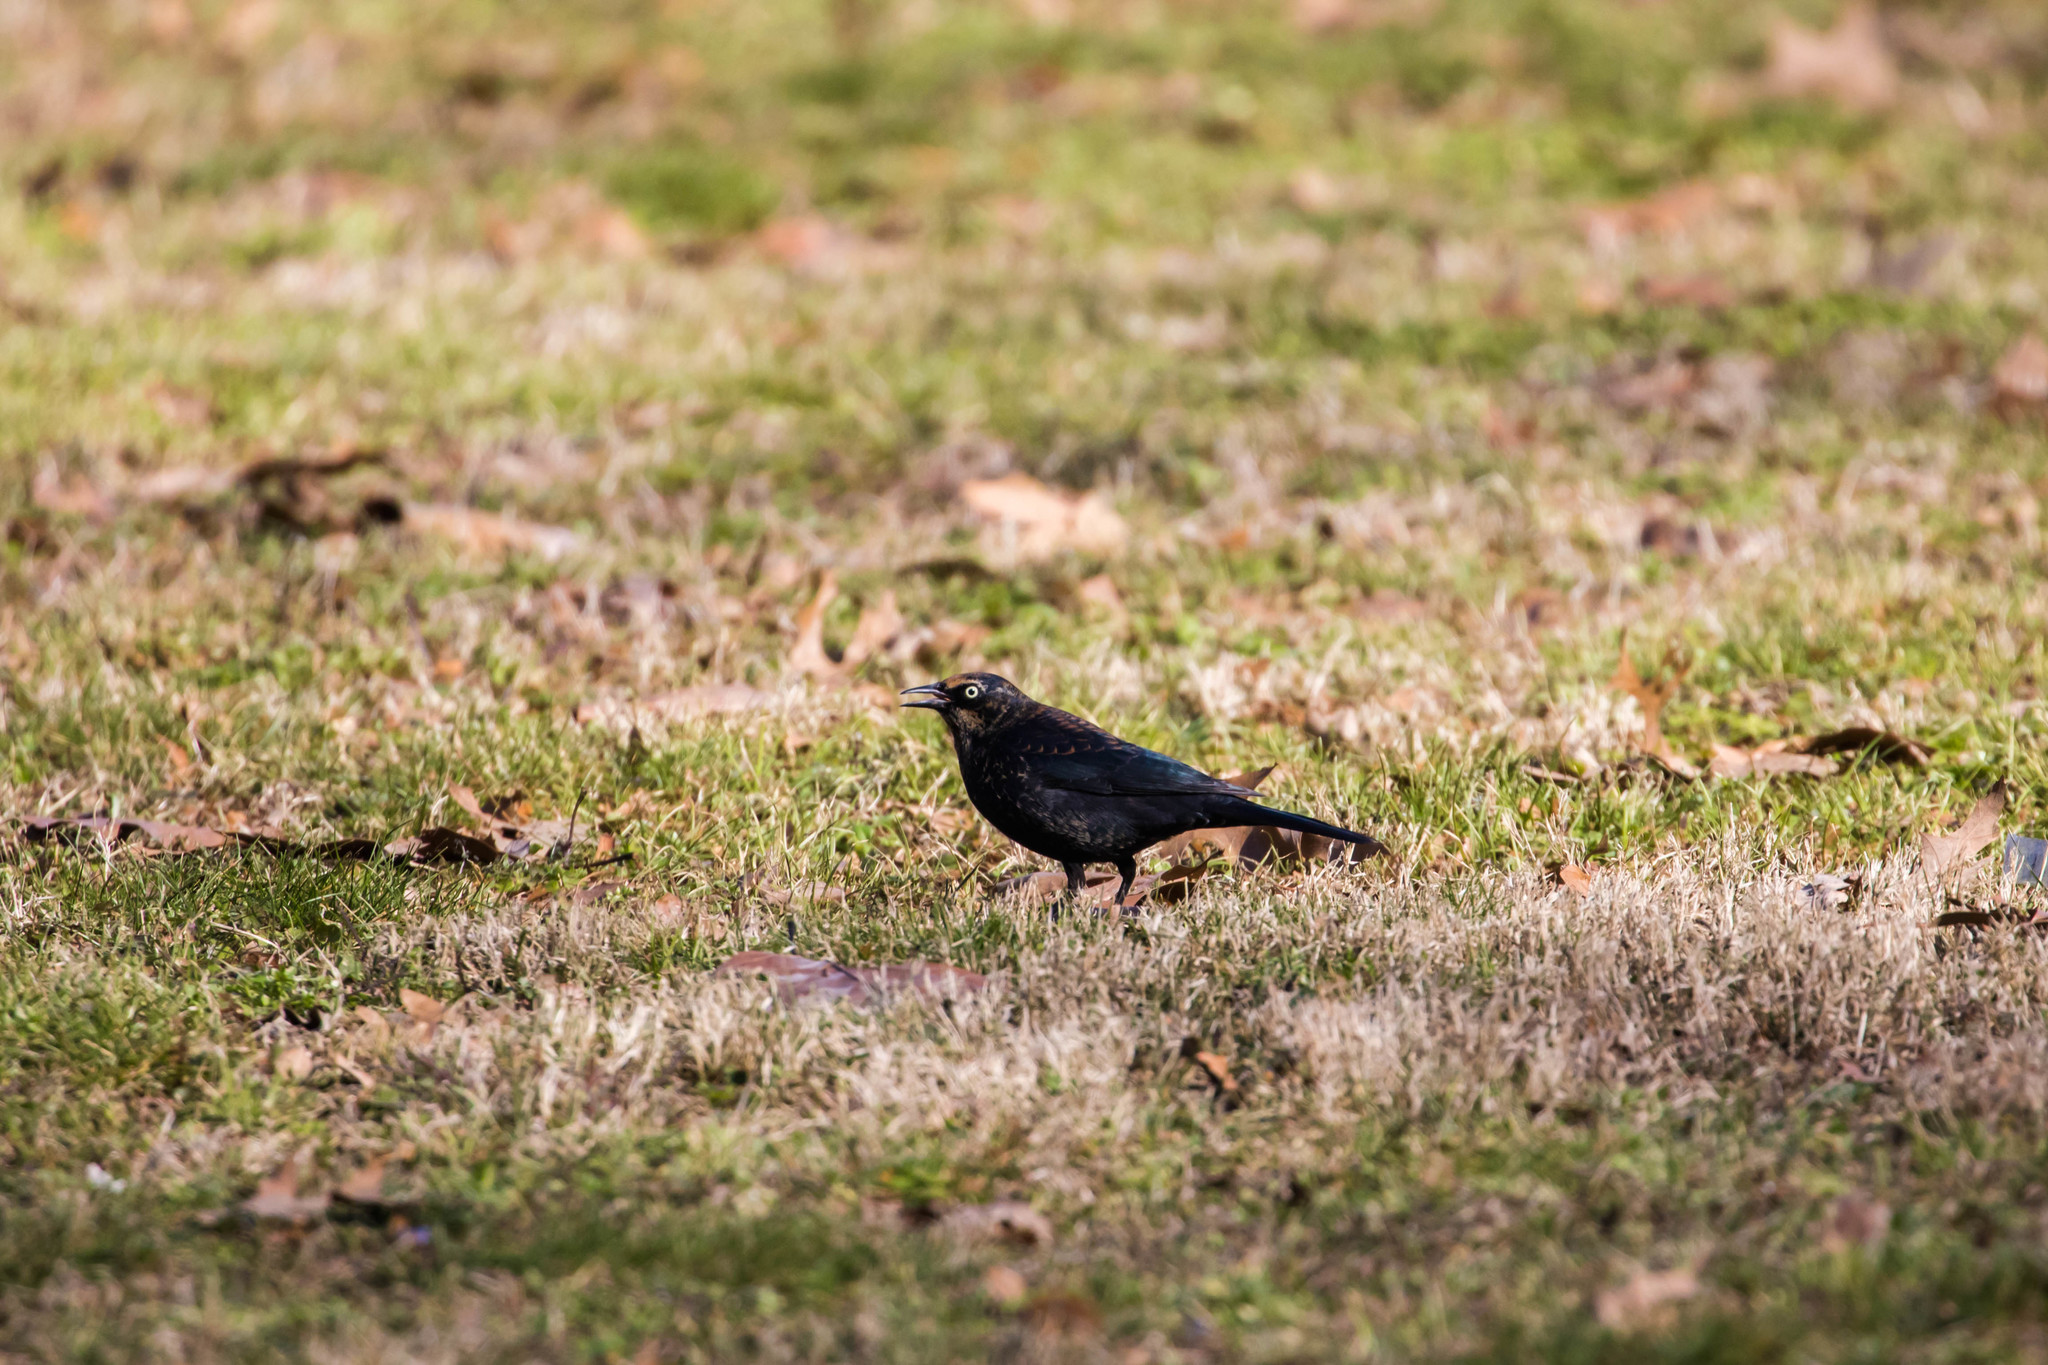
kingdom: Animalia
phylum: Chordata
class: Aves
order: Passeriformes
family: Icteridae
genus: Euphagus
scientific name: Euphagus carolinus
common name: Rusty blackbird
